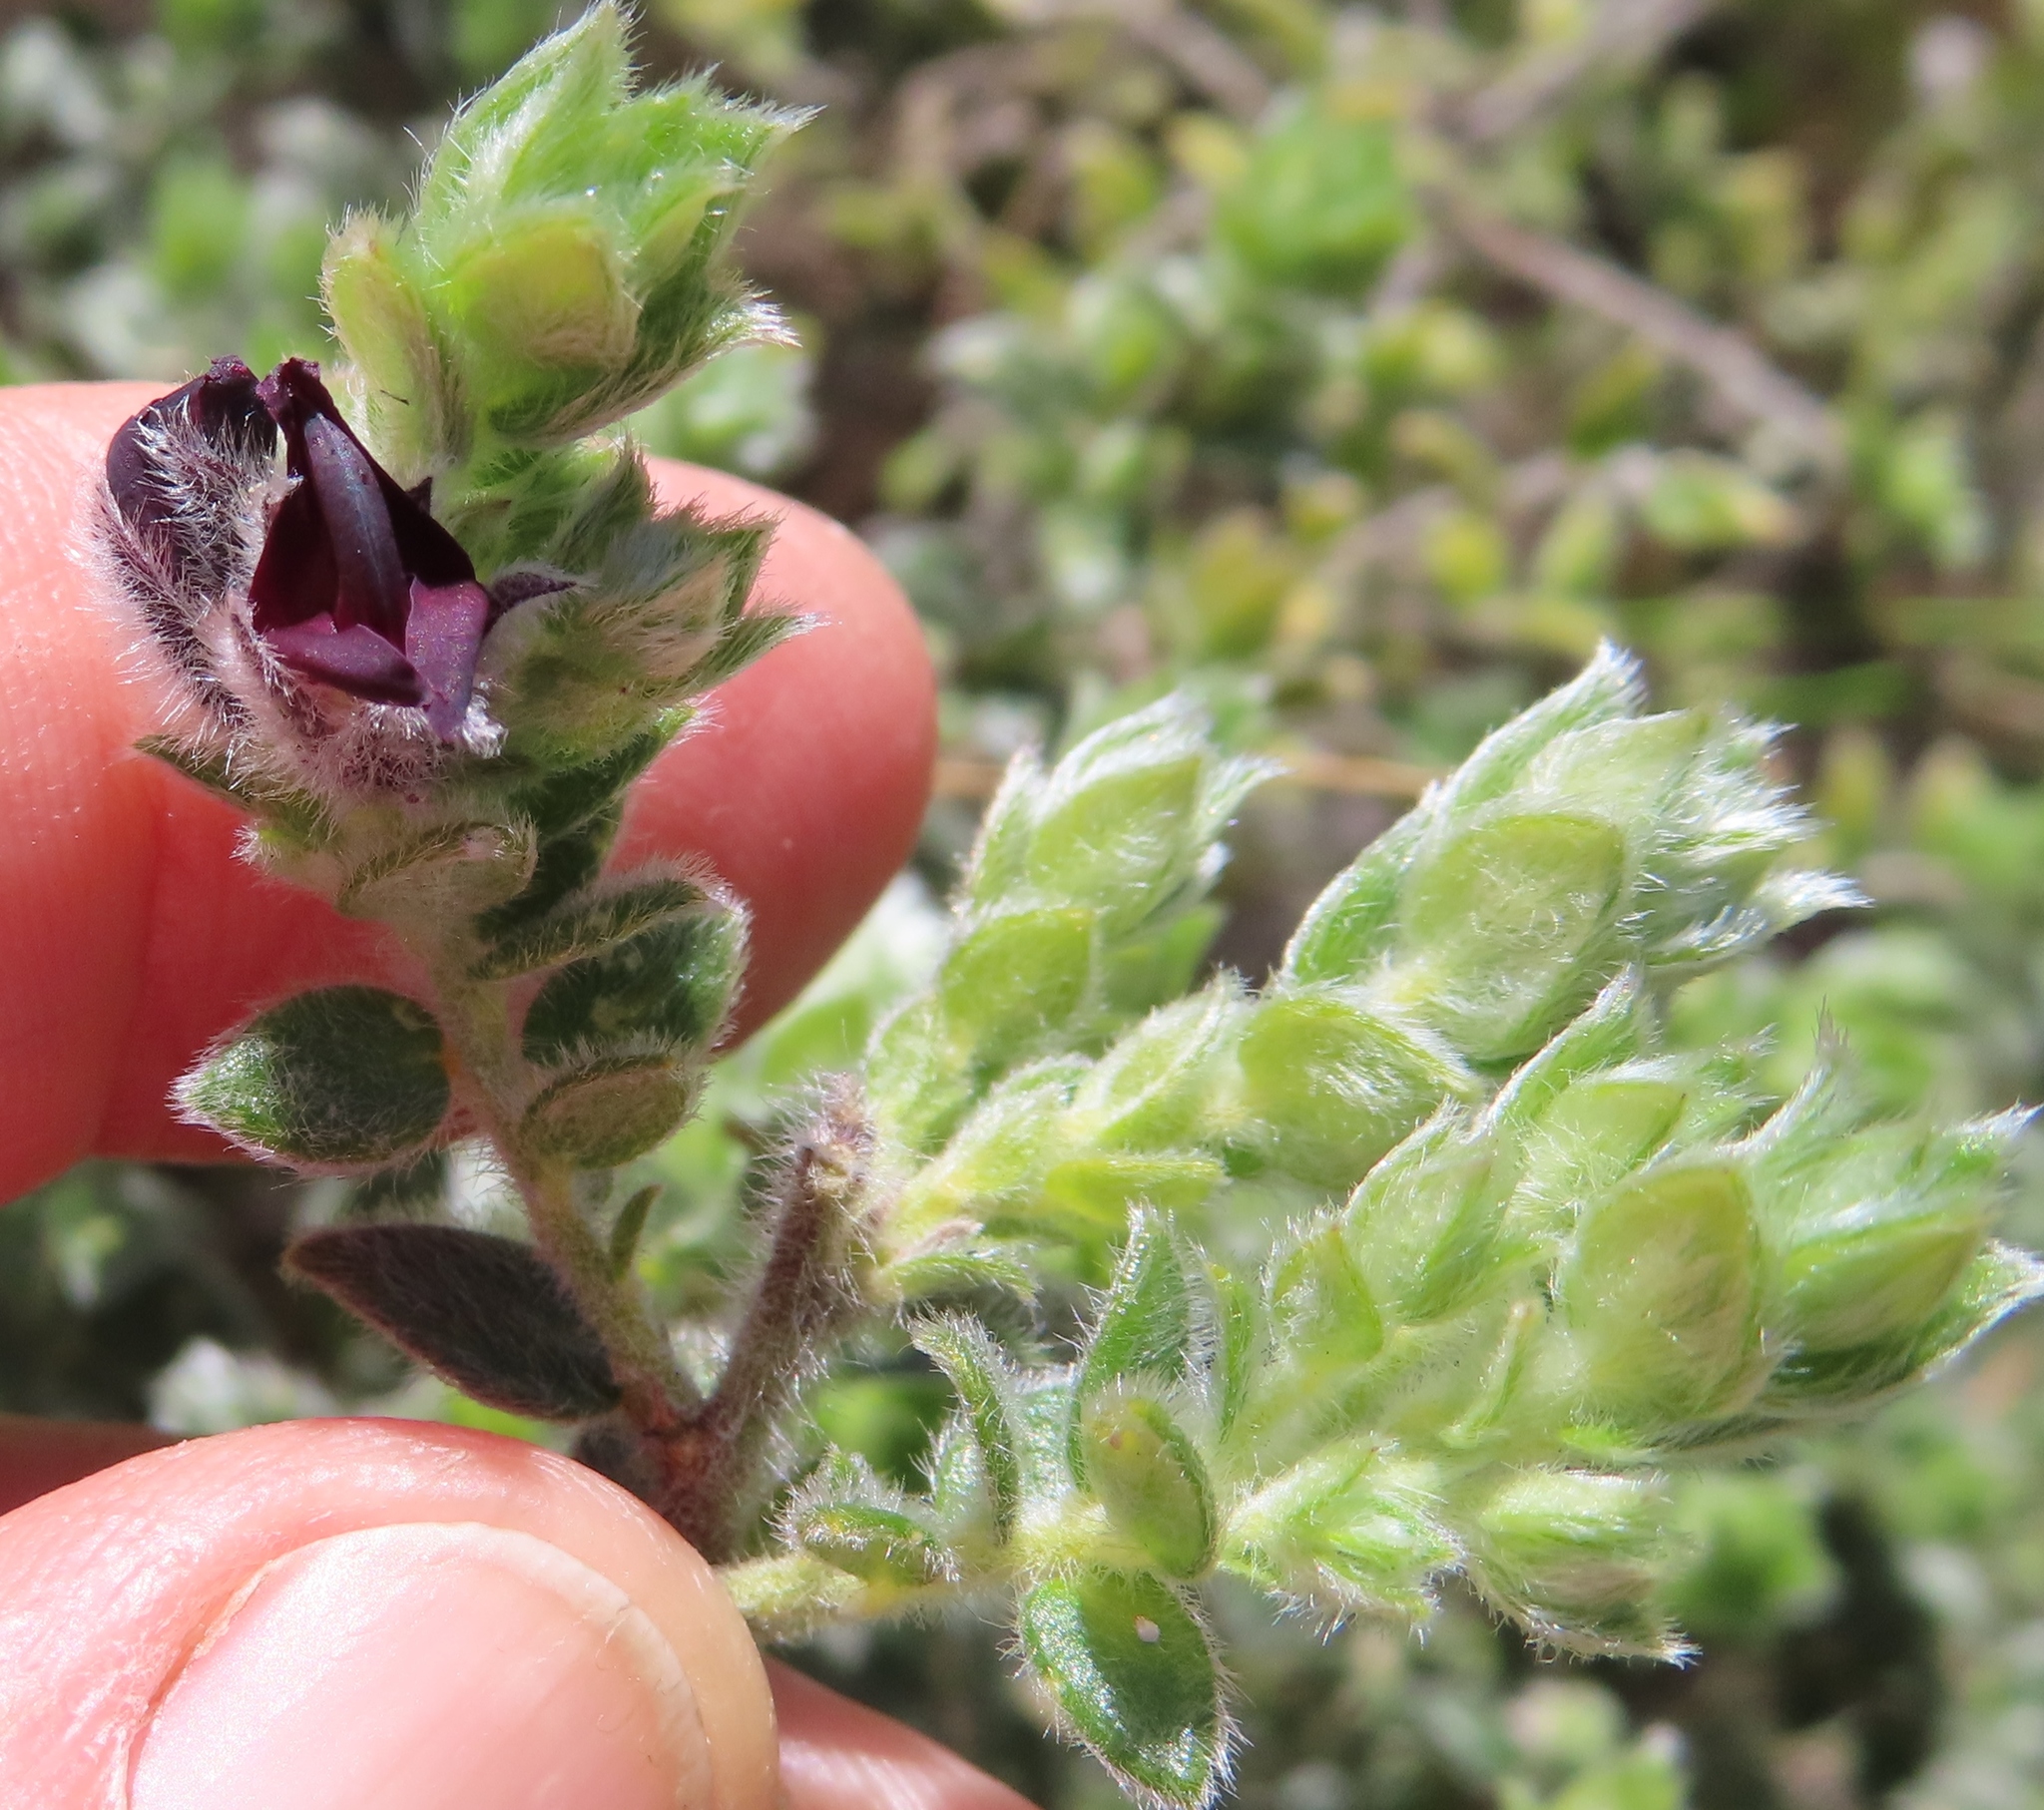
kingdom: Plantae
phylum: Tracheophyta
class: Magnoliopsida
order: Fabales
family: Fabaceae
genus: Amphithalea
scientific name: Amphithalea rostrata
